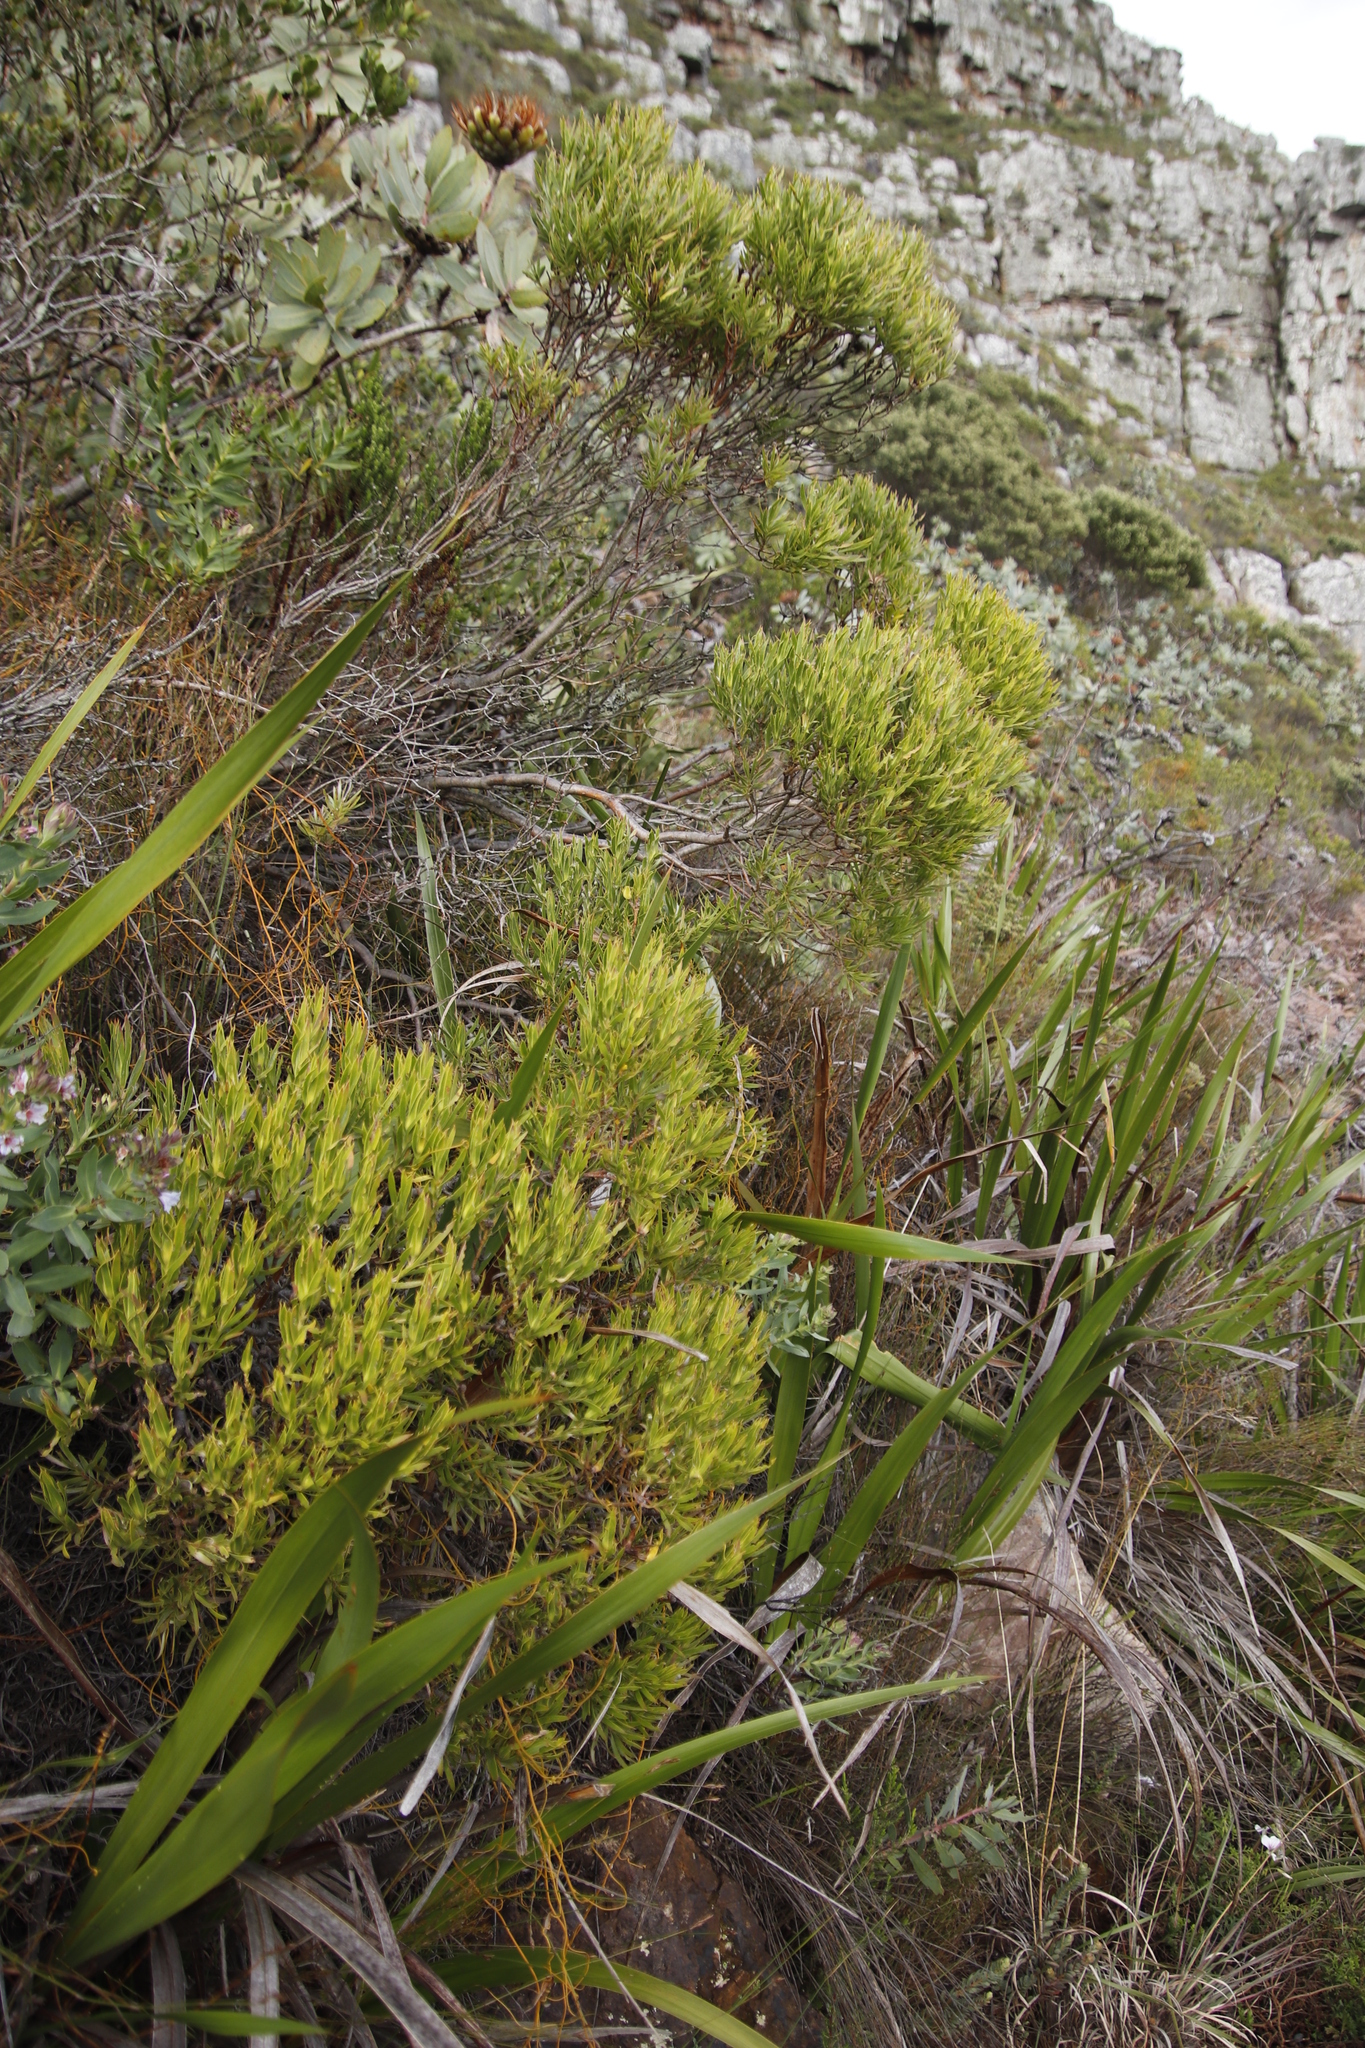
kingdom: Plantae
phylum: Tracheophyta
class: Magnoliopsida
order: Proteales
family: Proteaceae
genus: Leucadendron
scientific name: Leucadendron xanthoconus
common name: Sickle-leaf conebush
